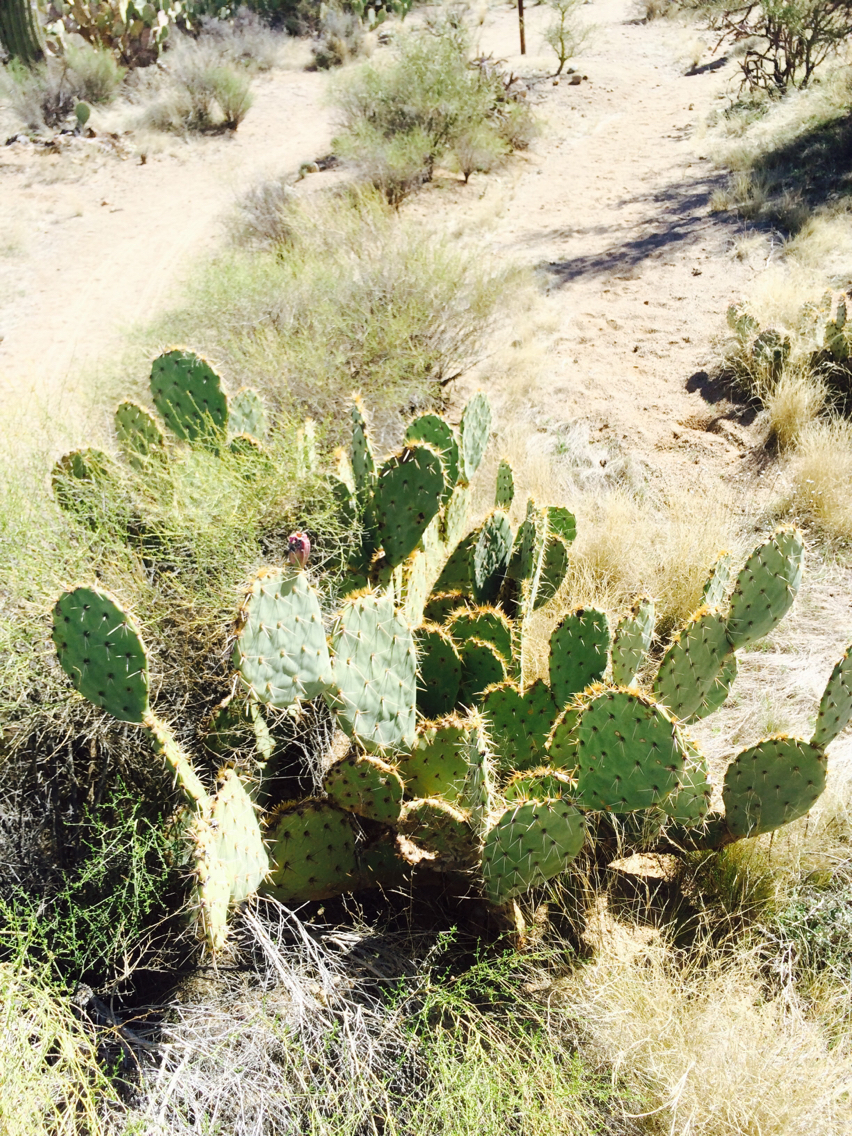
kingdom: Plantae
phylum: Tracheophyta
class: Magnoliopsida
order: Caryophyllales
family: Cactaceae
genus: Opuntia
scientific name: Opuntia engelmannii
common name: Cactus-apple
